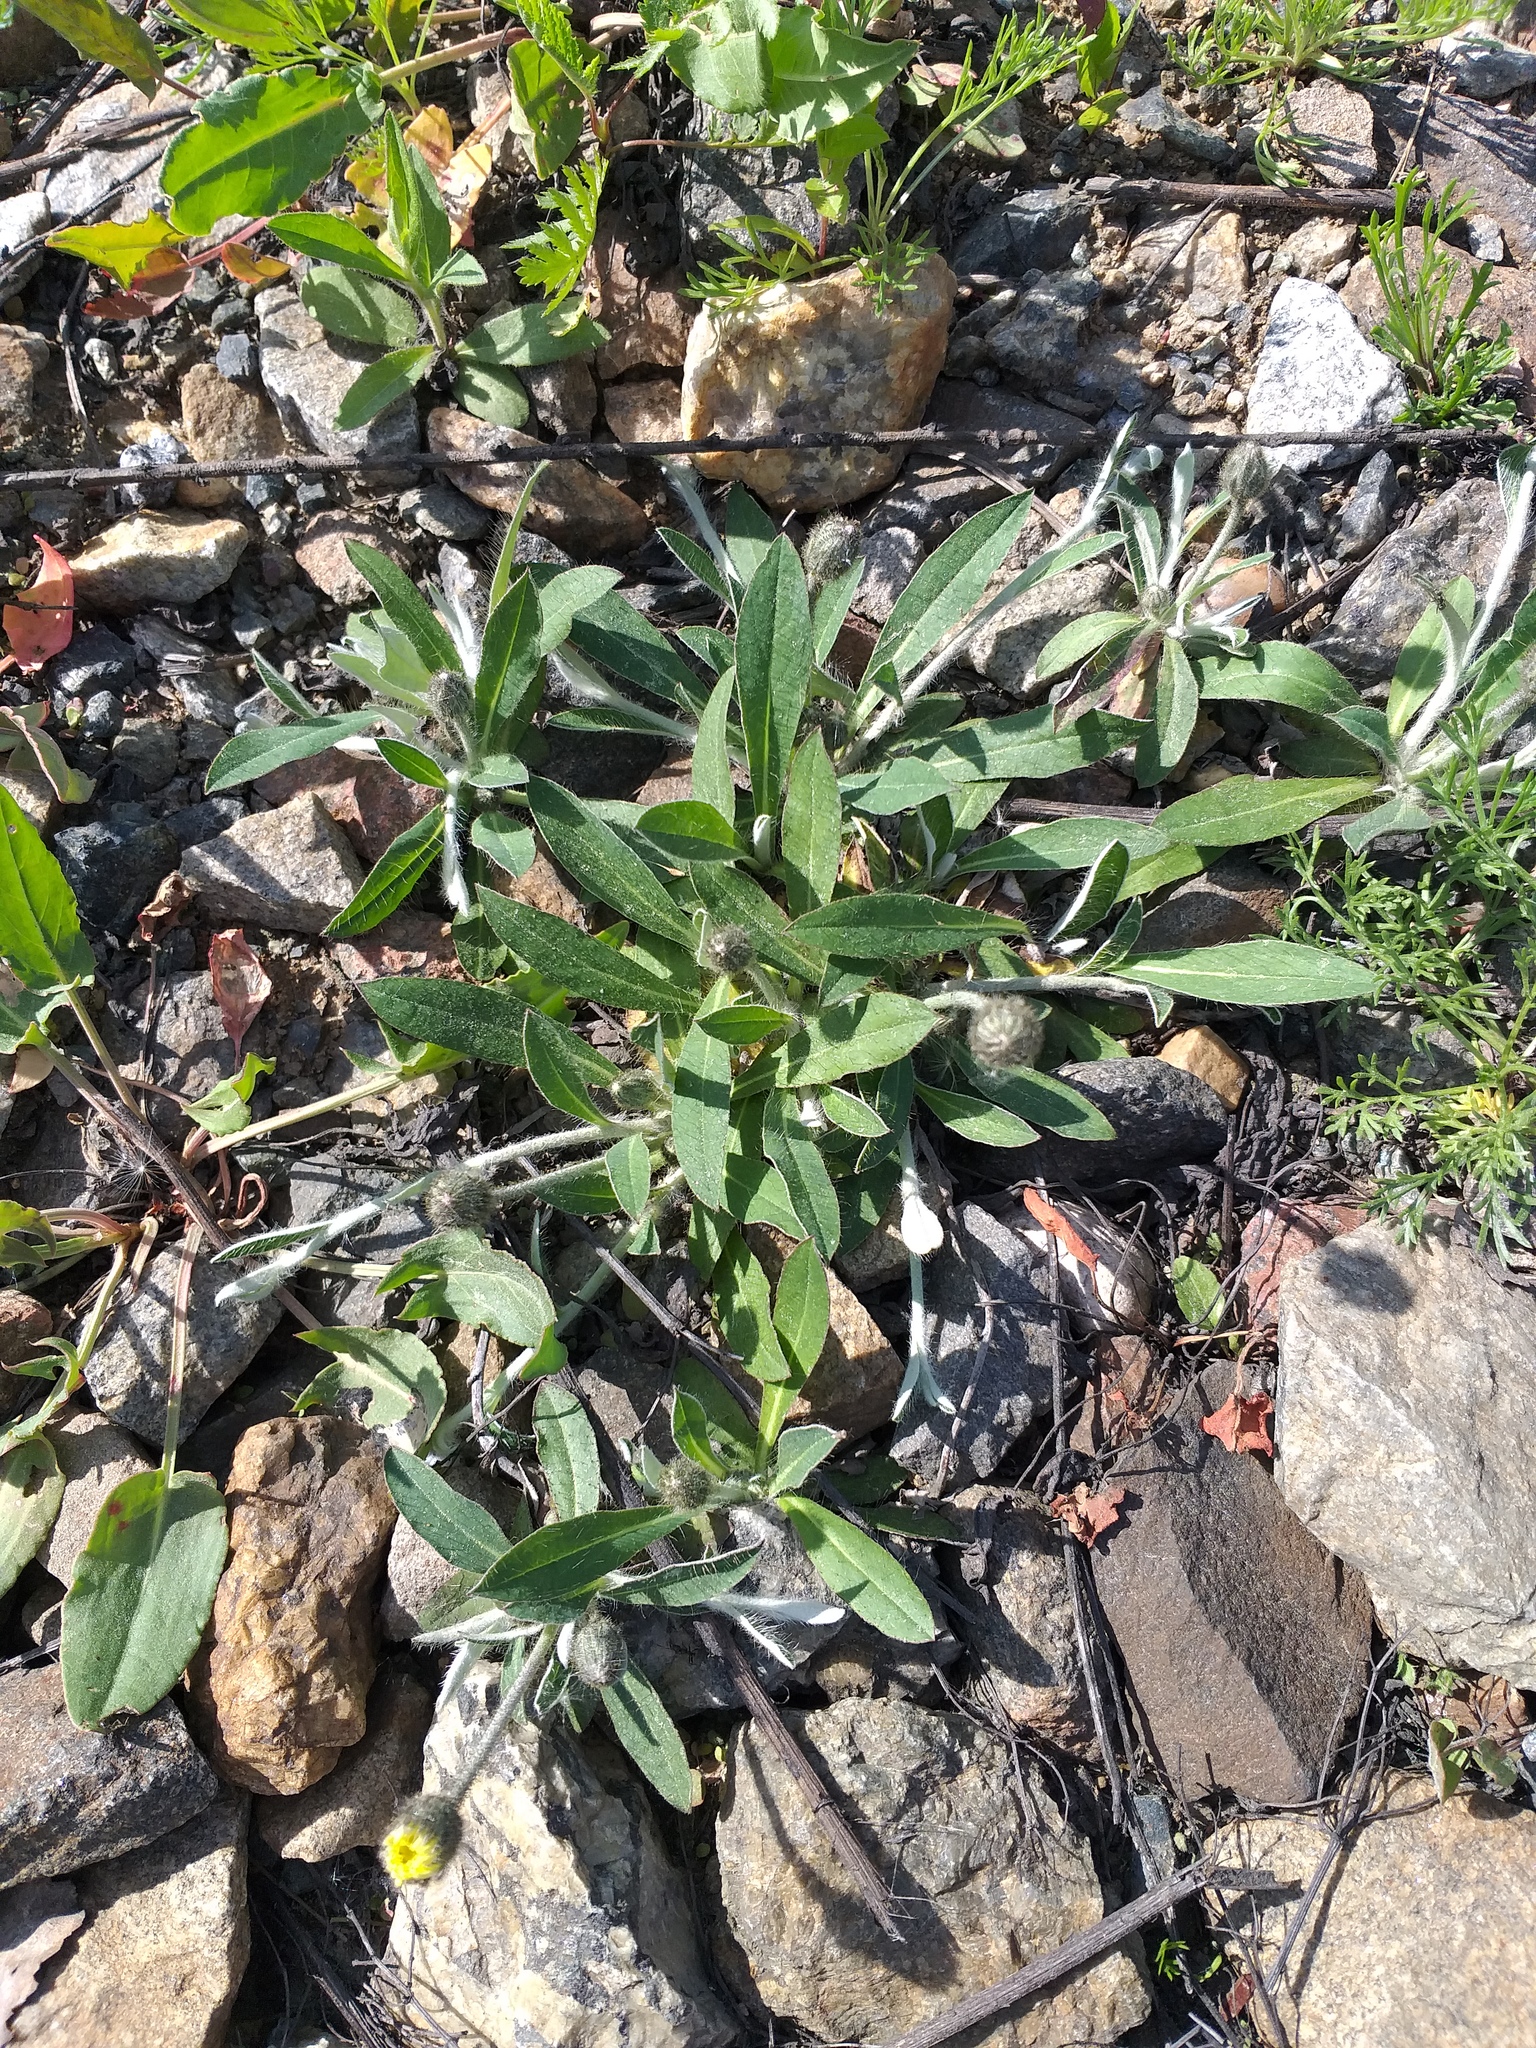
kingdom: Plantae
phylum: Tracheophyta
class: Magnoliopsida
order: Asterales
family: Asteraceae
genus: Pilosella
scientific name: Pilosella officinarum
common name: Mouse-ear hawkweed
